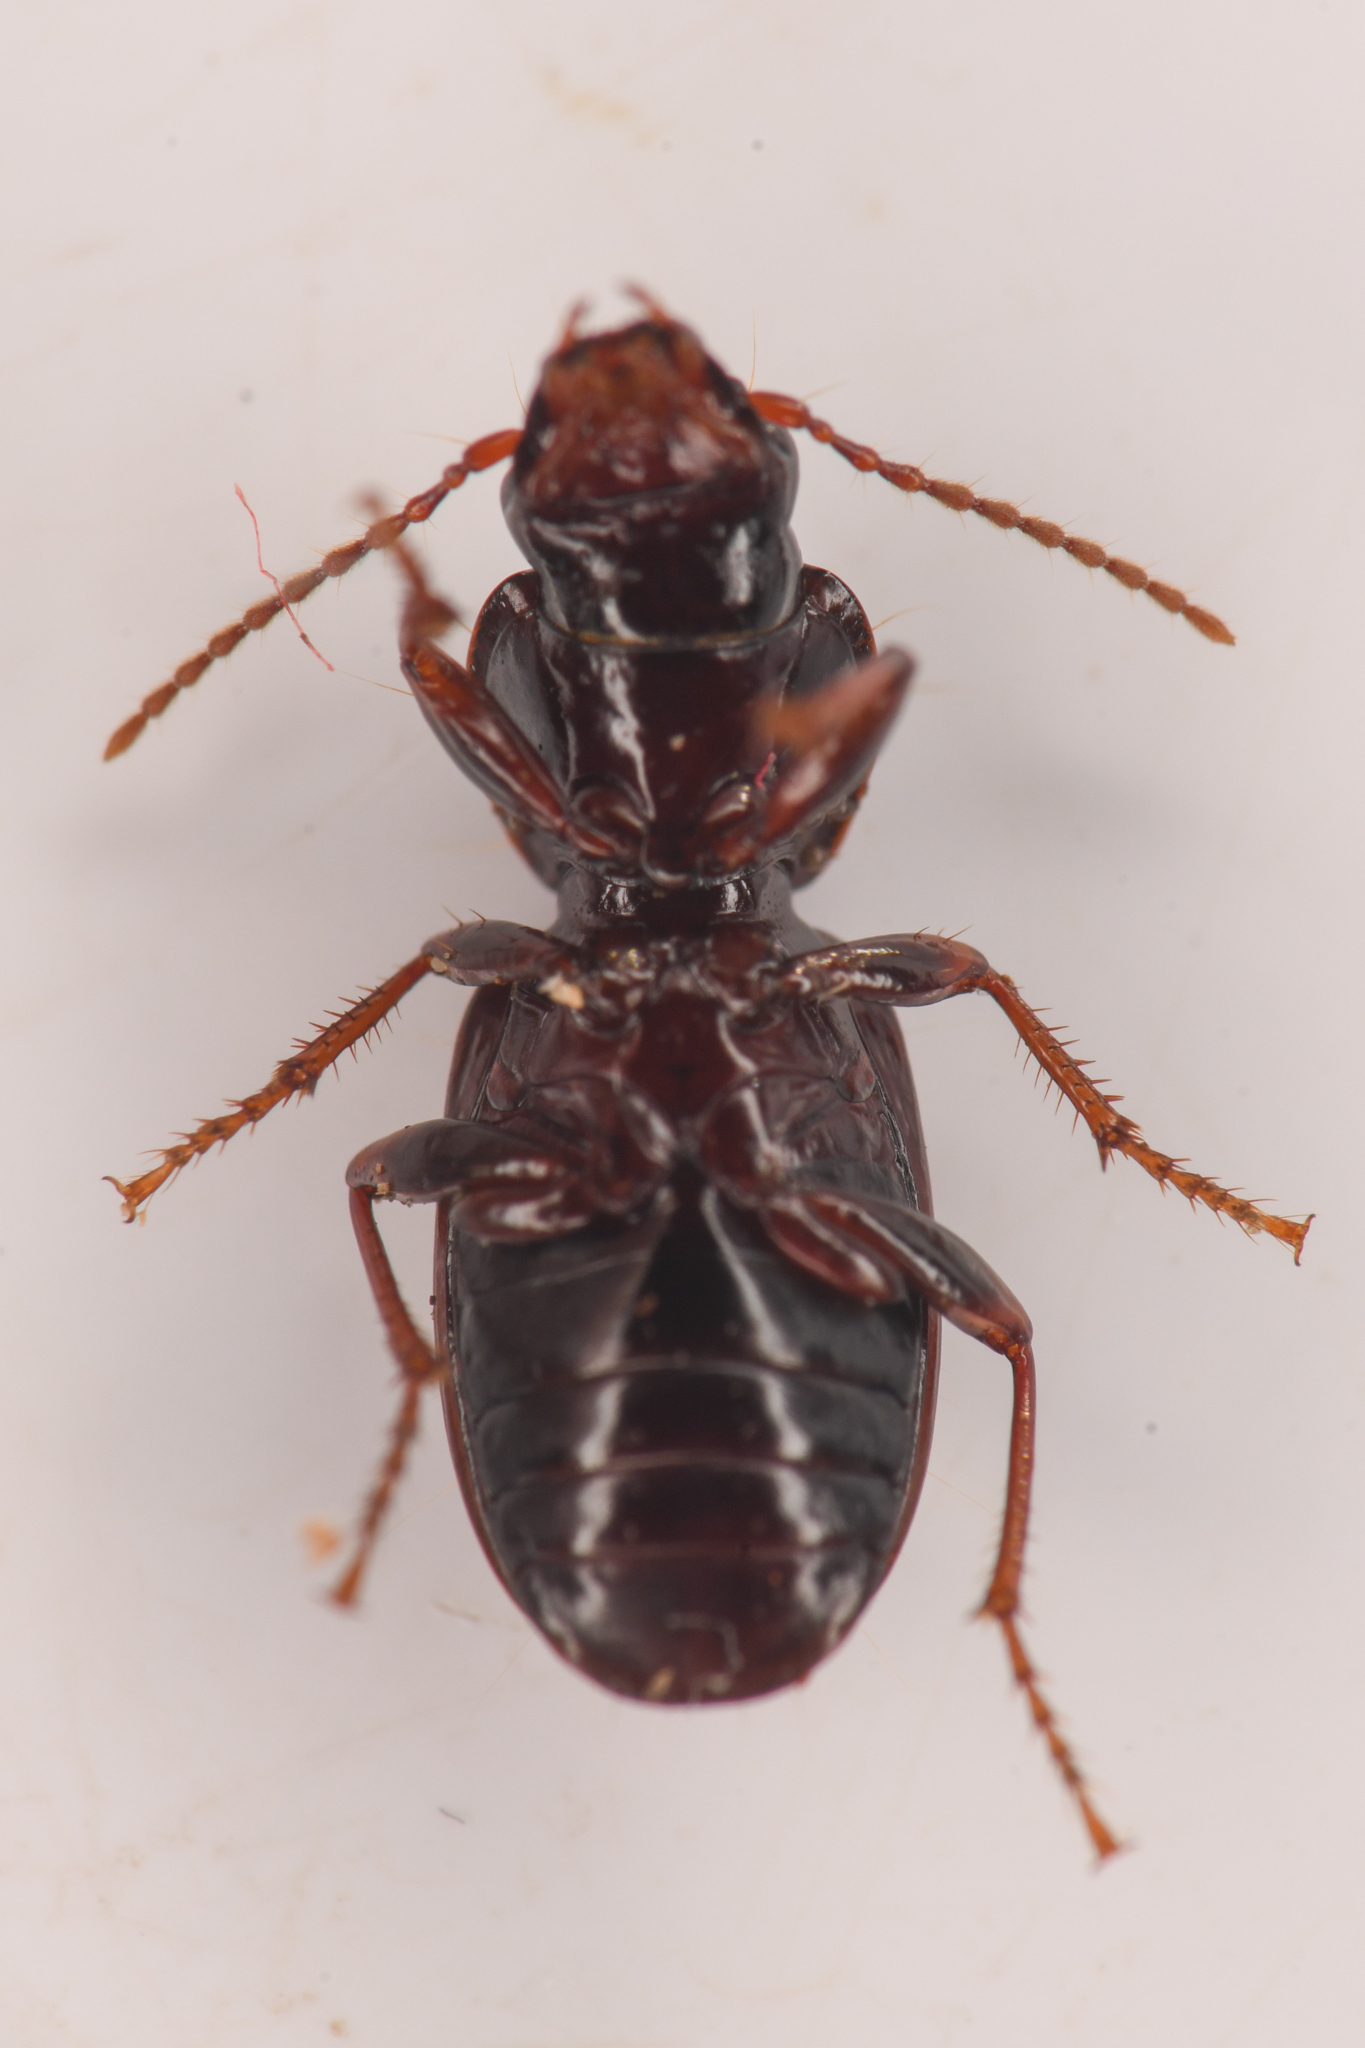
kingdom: Animalia
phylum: Arthropoda
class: Insecta
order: Coleoptera
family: Carabidae
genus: Pterostichus
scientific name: Pterostichus pumilus
